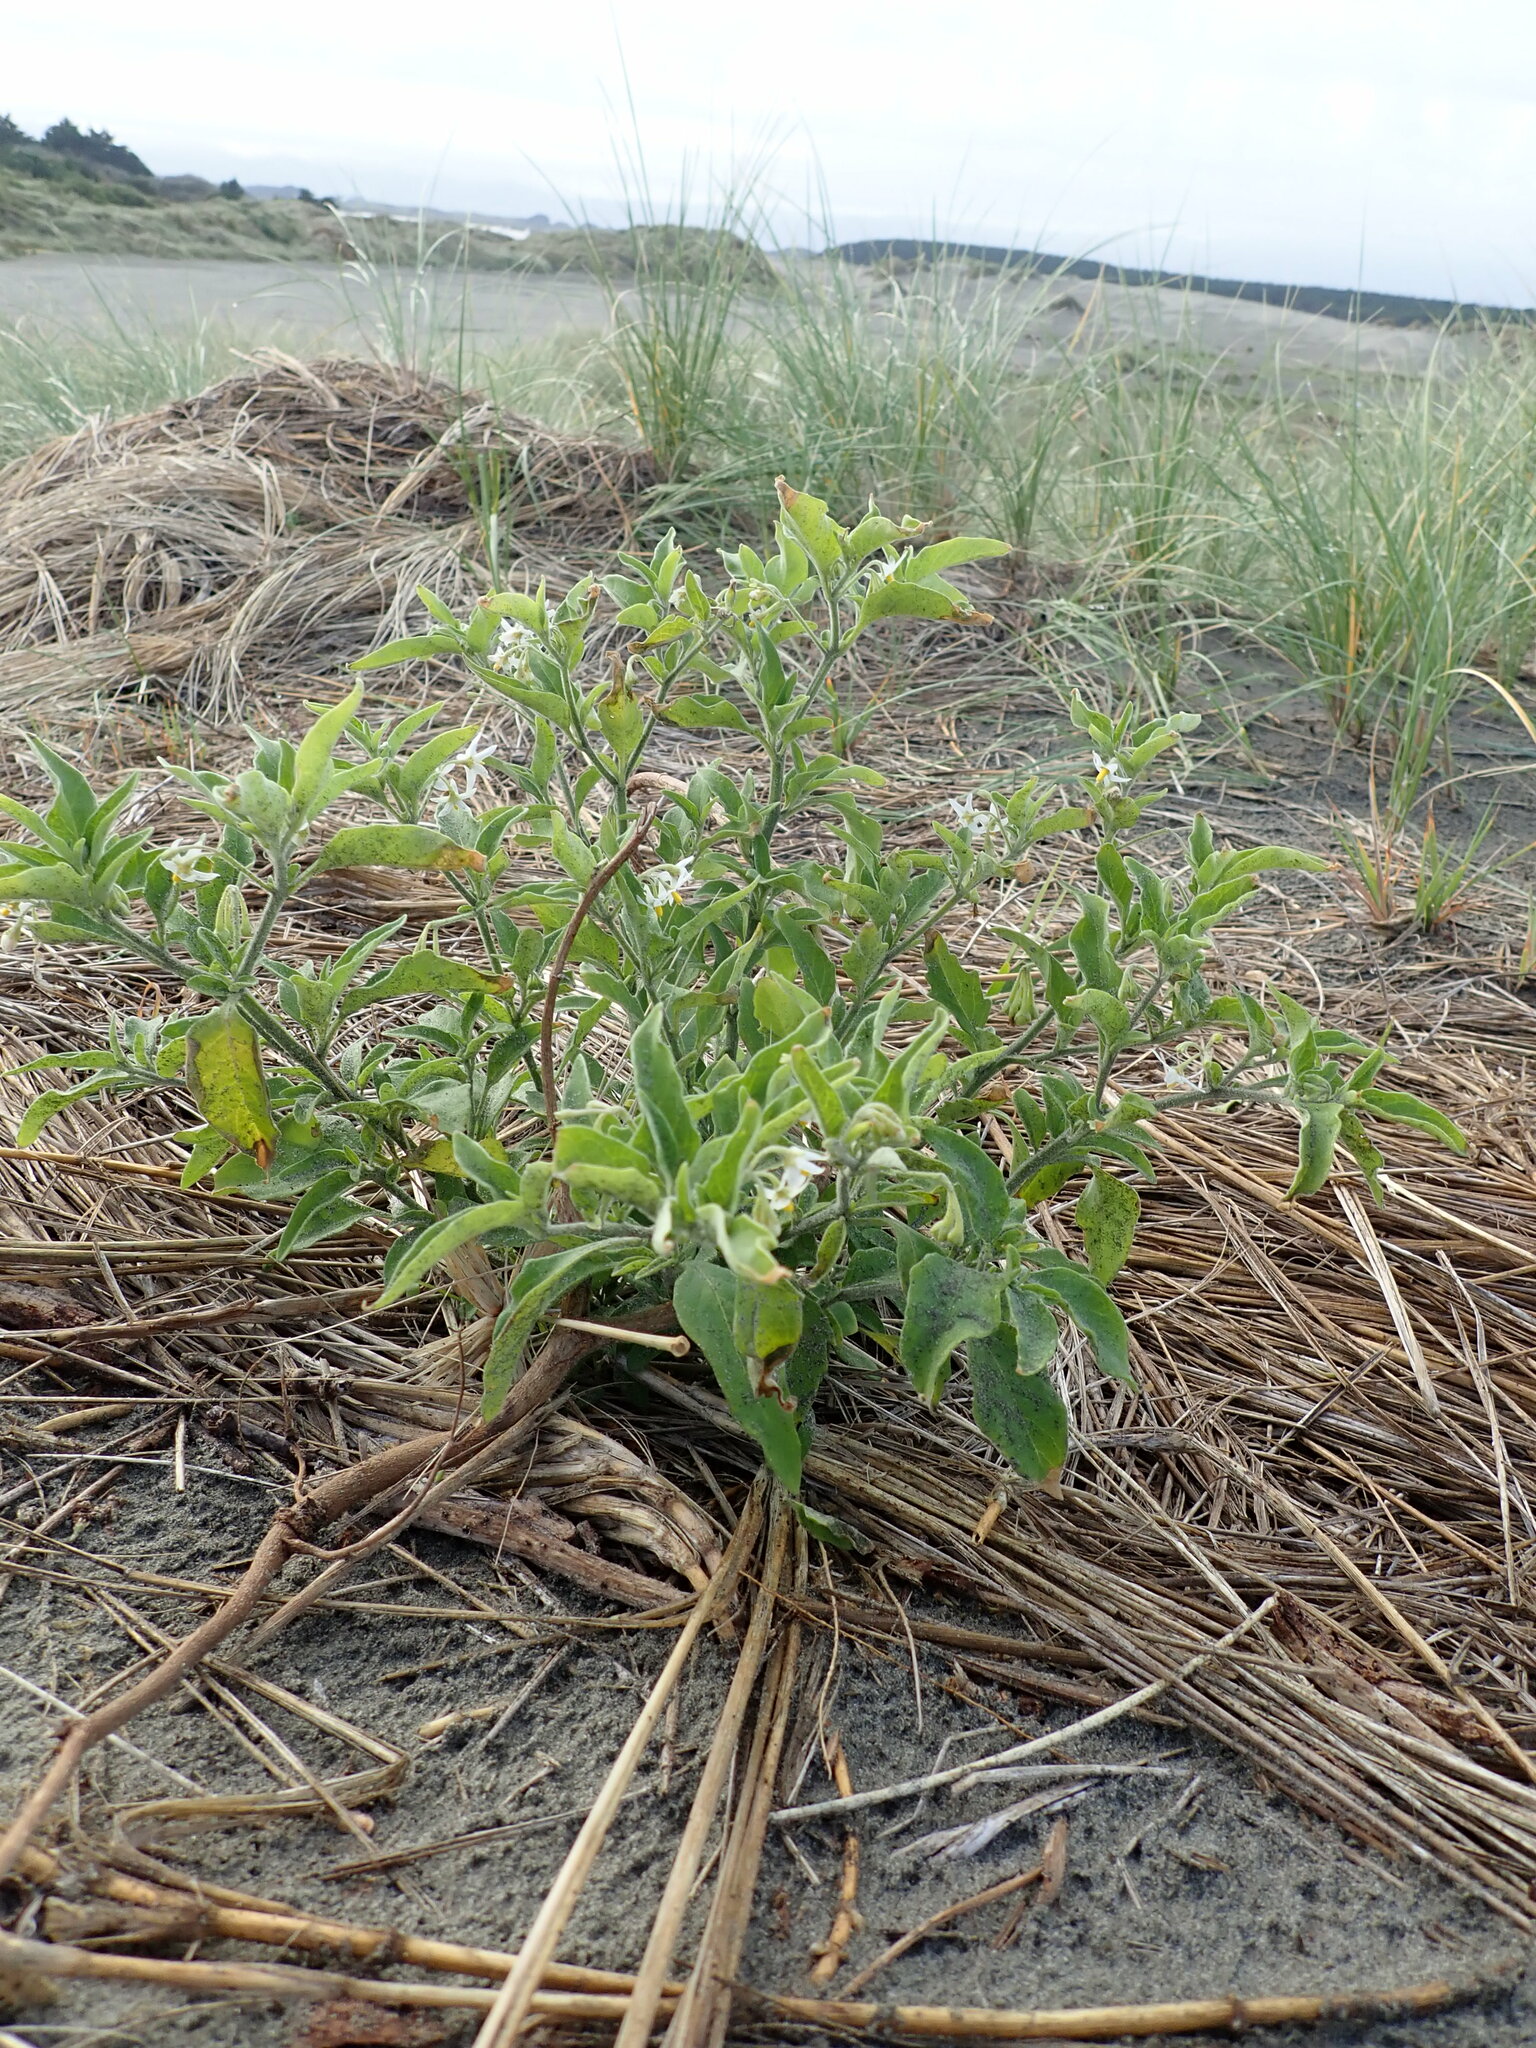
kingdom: Plantae
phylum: Tracheophyta
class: Magnoliopsida
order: Solanales
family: Solanaceae
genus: Solanum
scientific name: Solanum chenopodioides
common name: Tall nightshade
